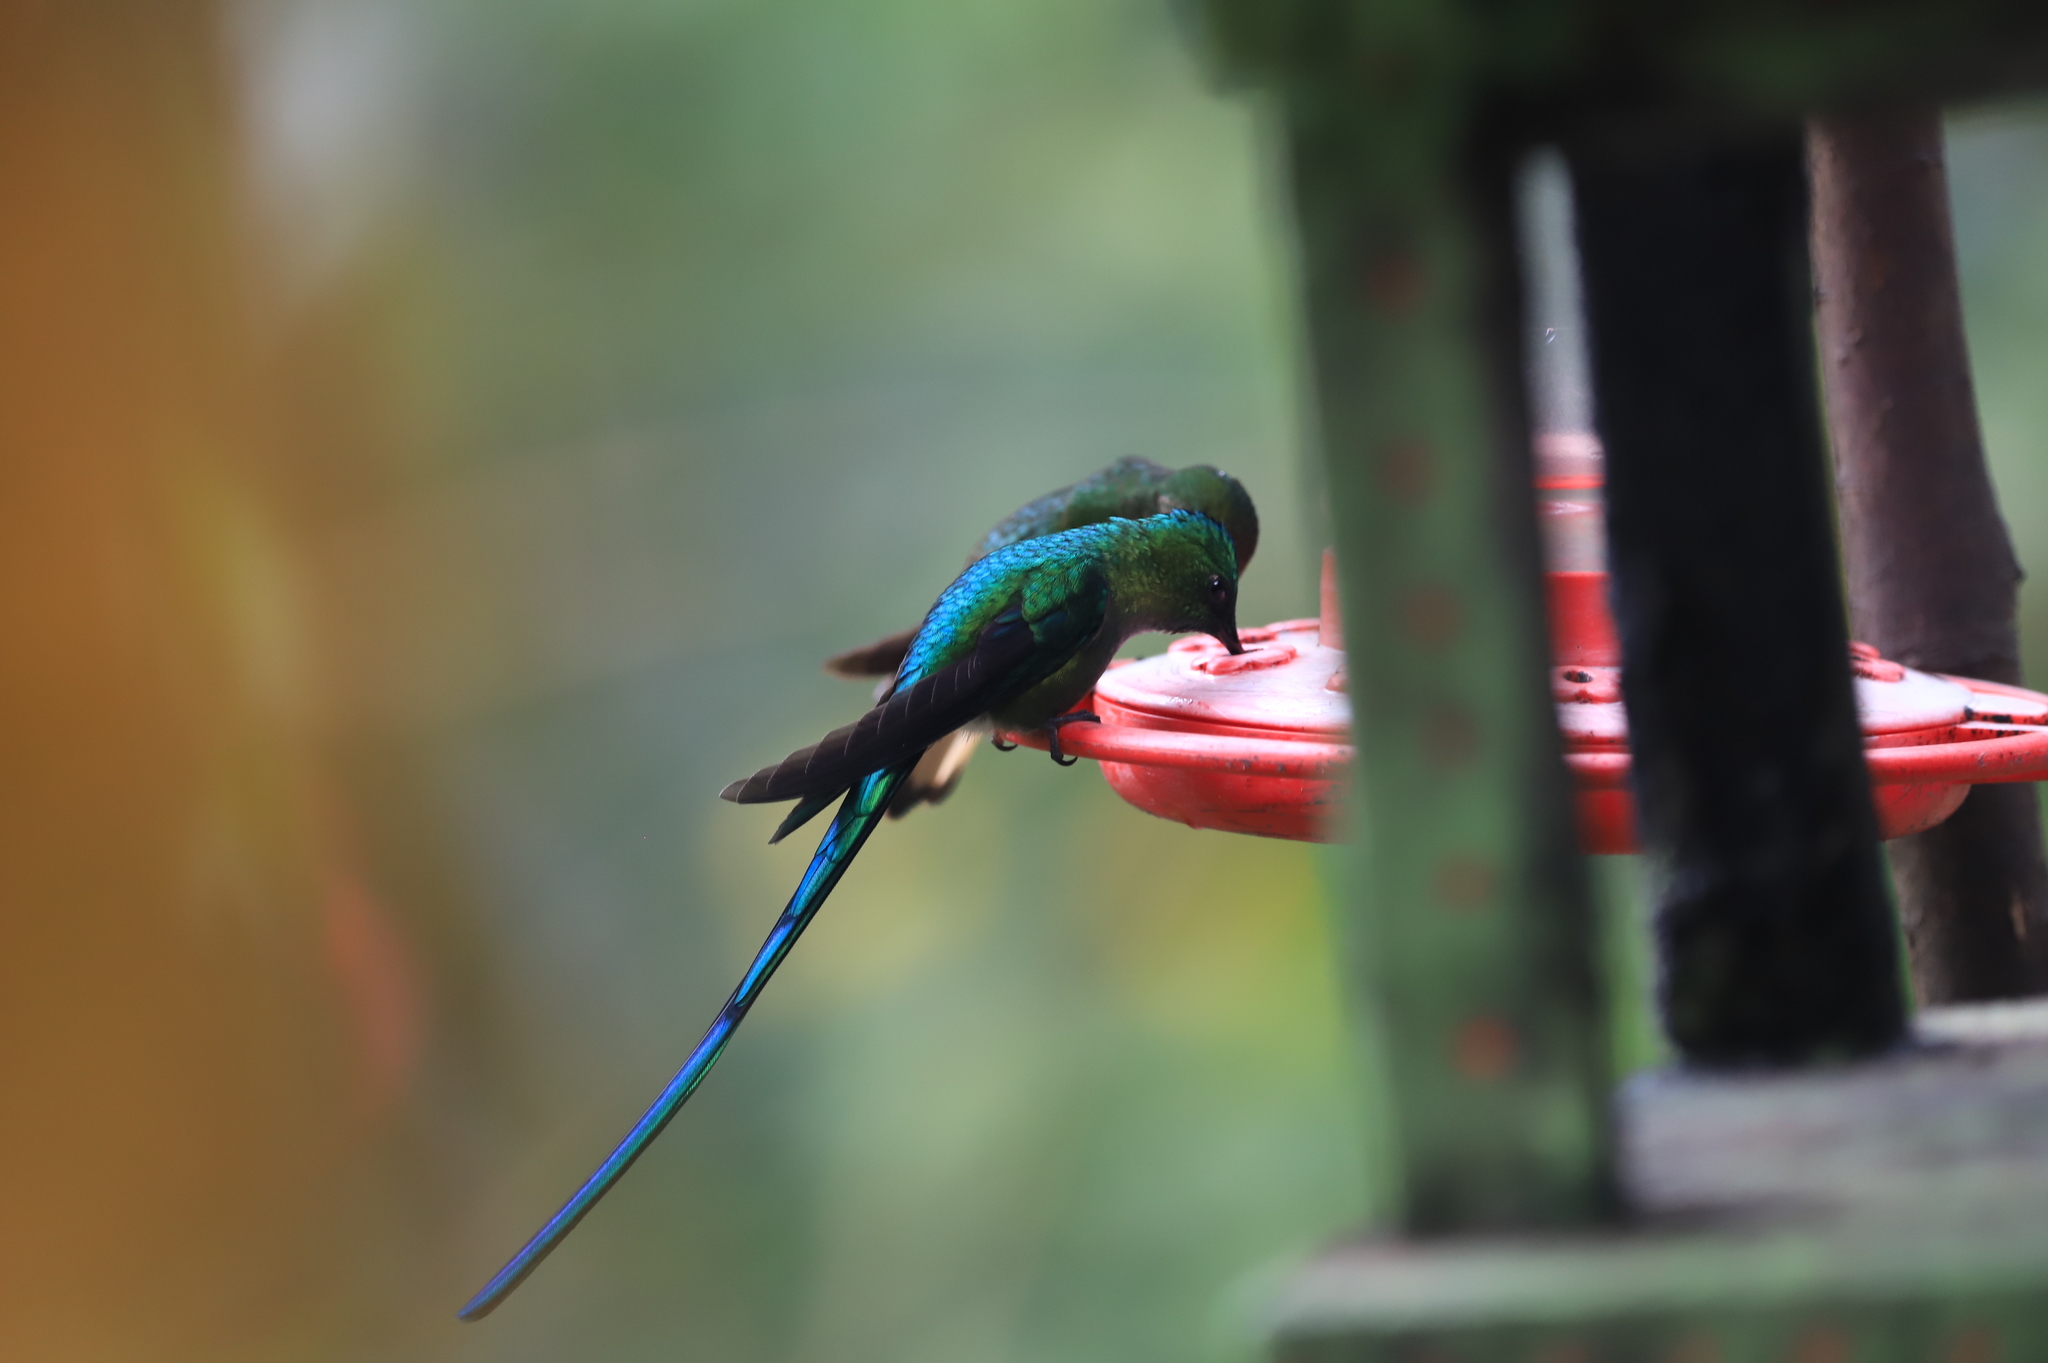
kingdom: Animalia
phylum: Chordata
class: Aves
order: Apodiformes
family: Trochilidae
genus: Aglaiocercus
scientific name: Aglaiocercus kingii
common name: Long-tailed sylph
